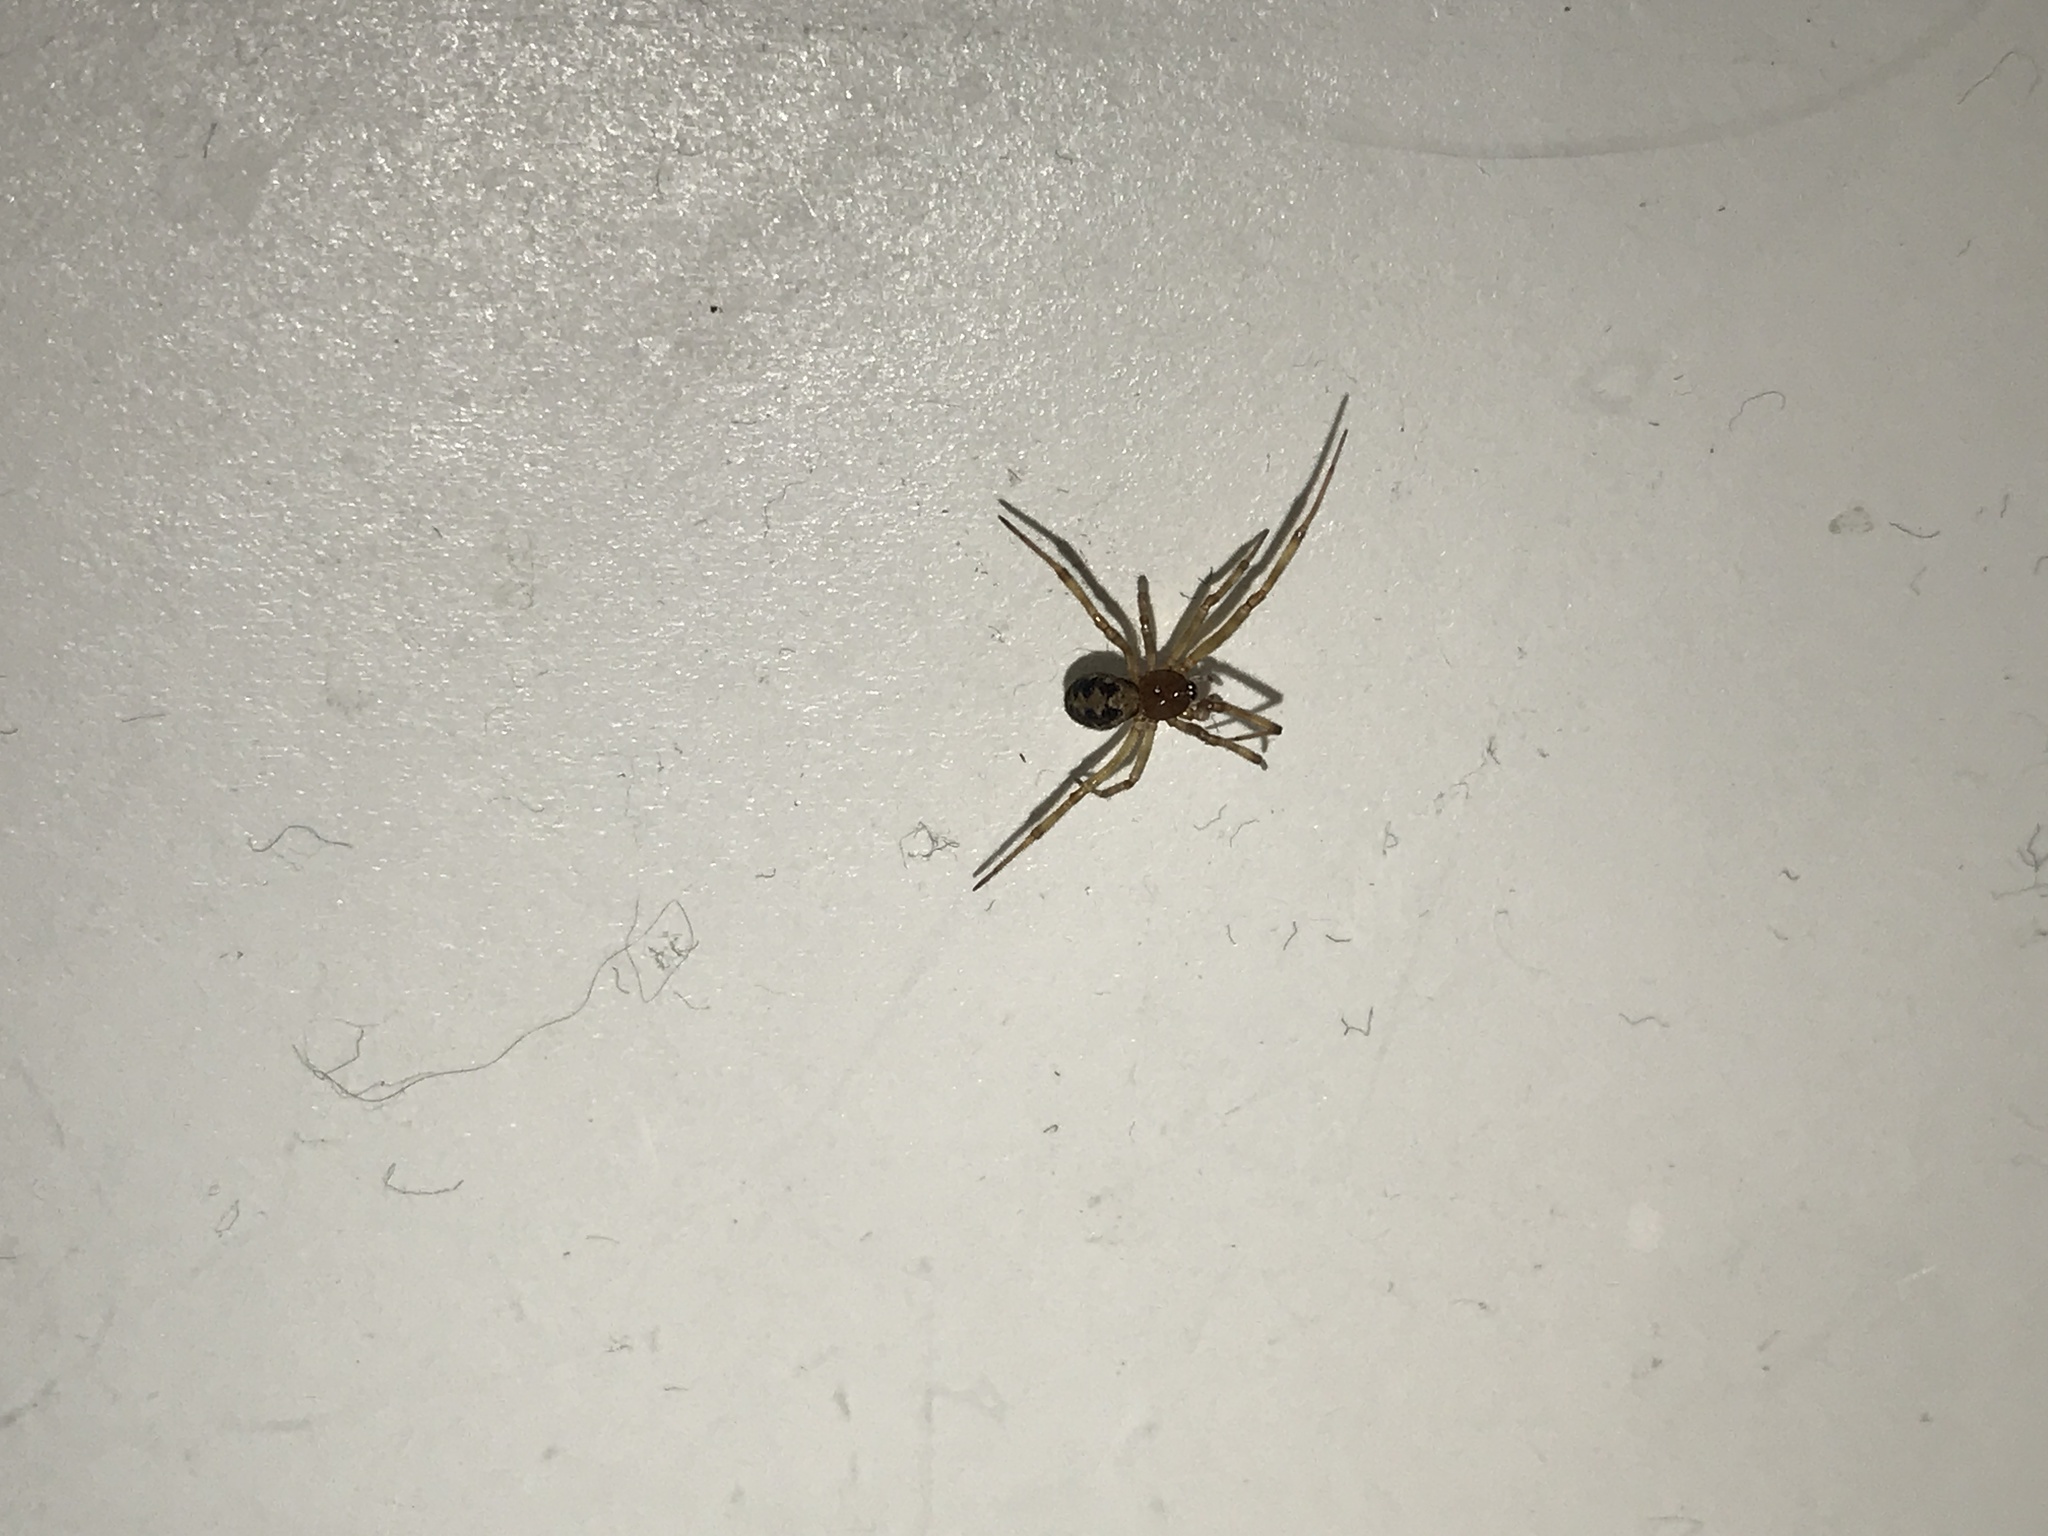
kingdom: Animalia
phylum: Arthropoda
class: Arachnida
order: Araneae
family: Theridiidae
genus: Steatoda
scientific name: Steatoda triangulosa
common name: Triangulate bud spider
